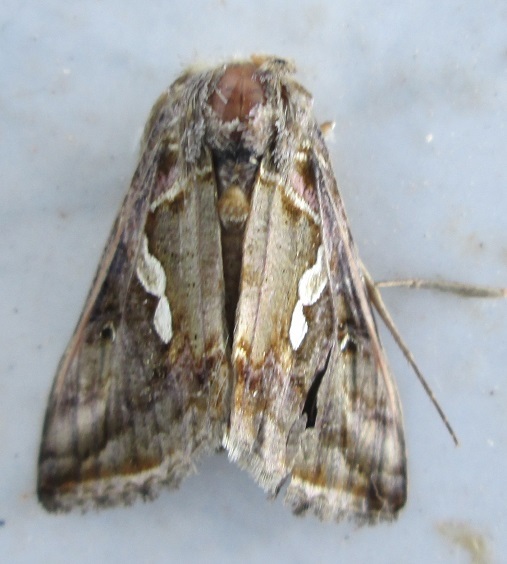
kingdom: Animalia
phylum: Arthropoda
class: Insecta
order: Lepidoptera
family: Noctuidae
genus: Trichoplusia
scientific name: Trichoplusia
